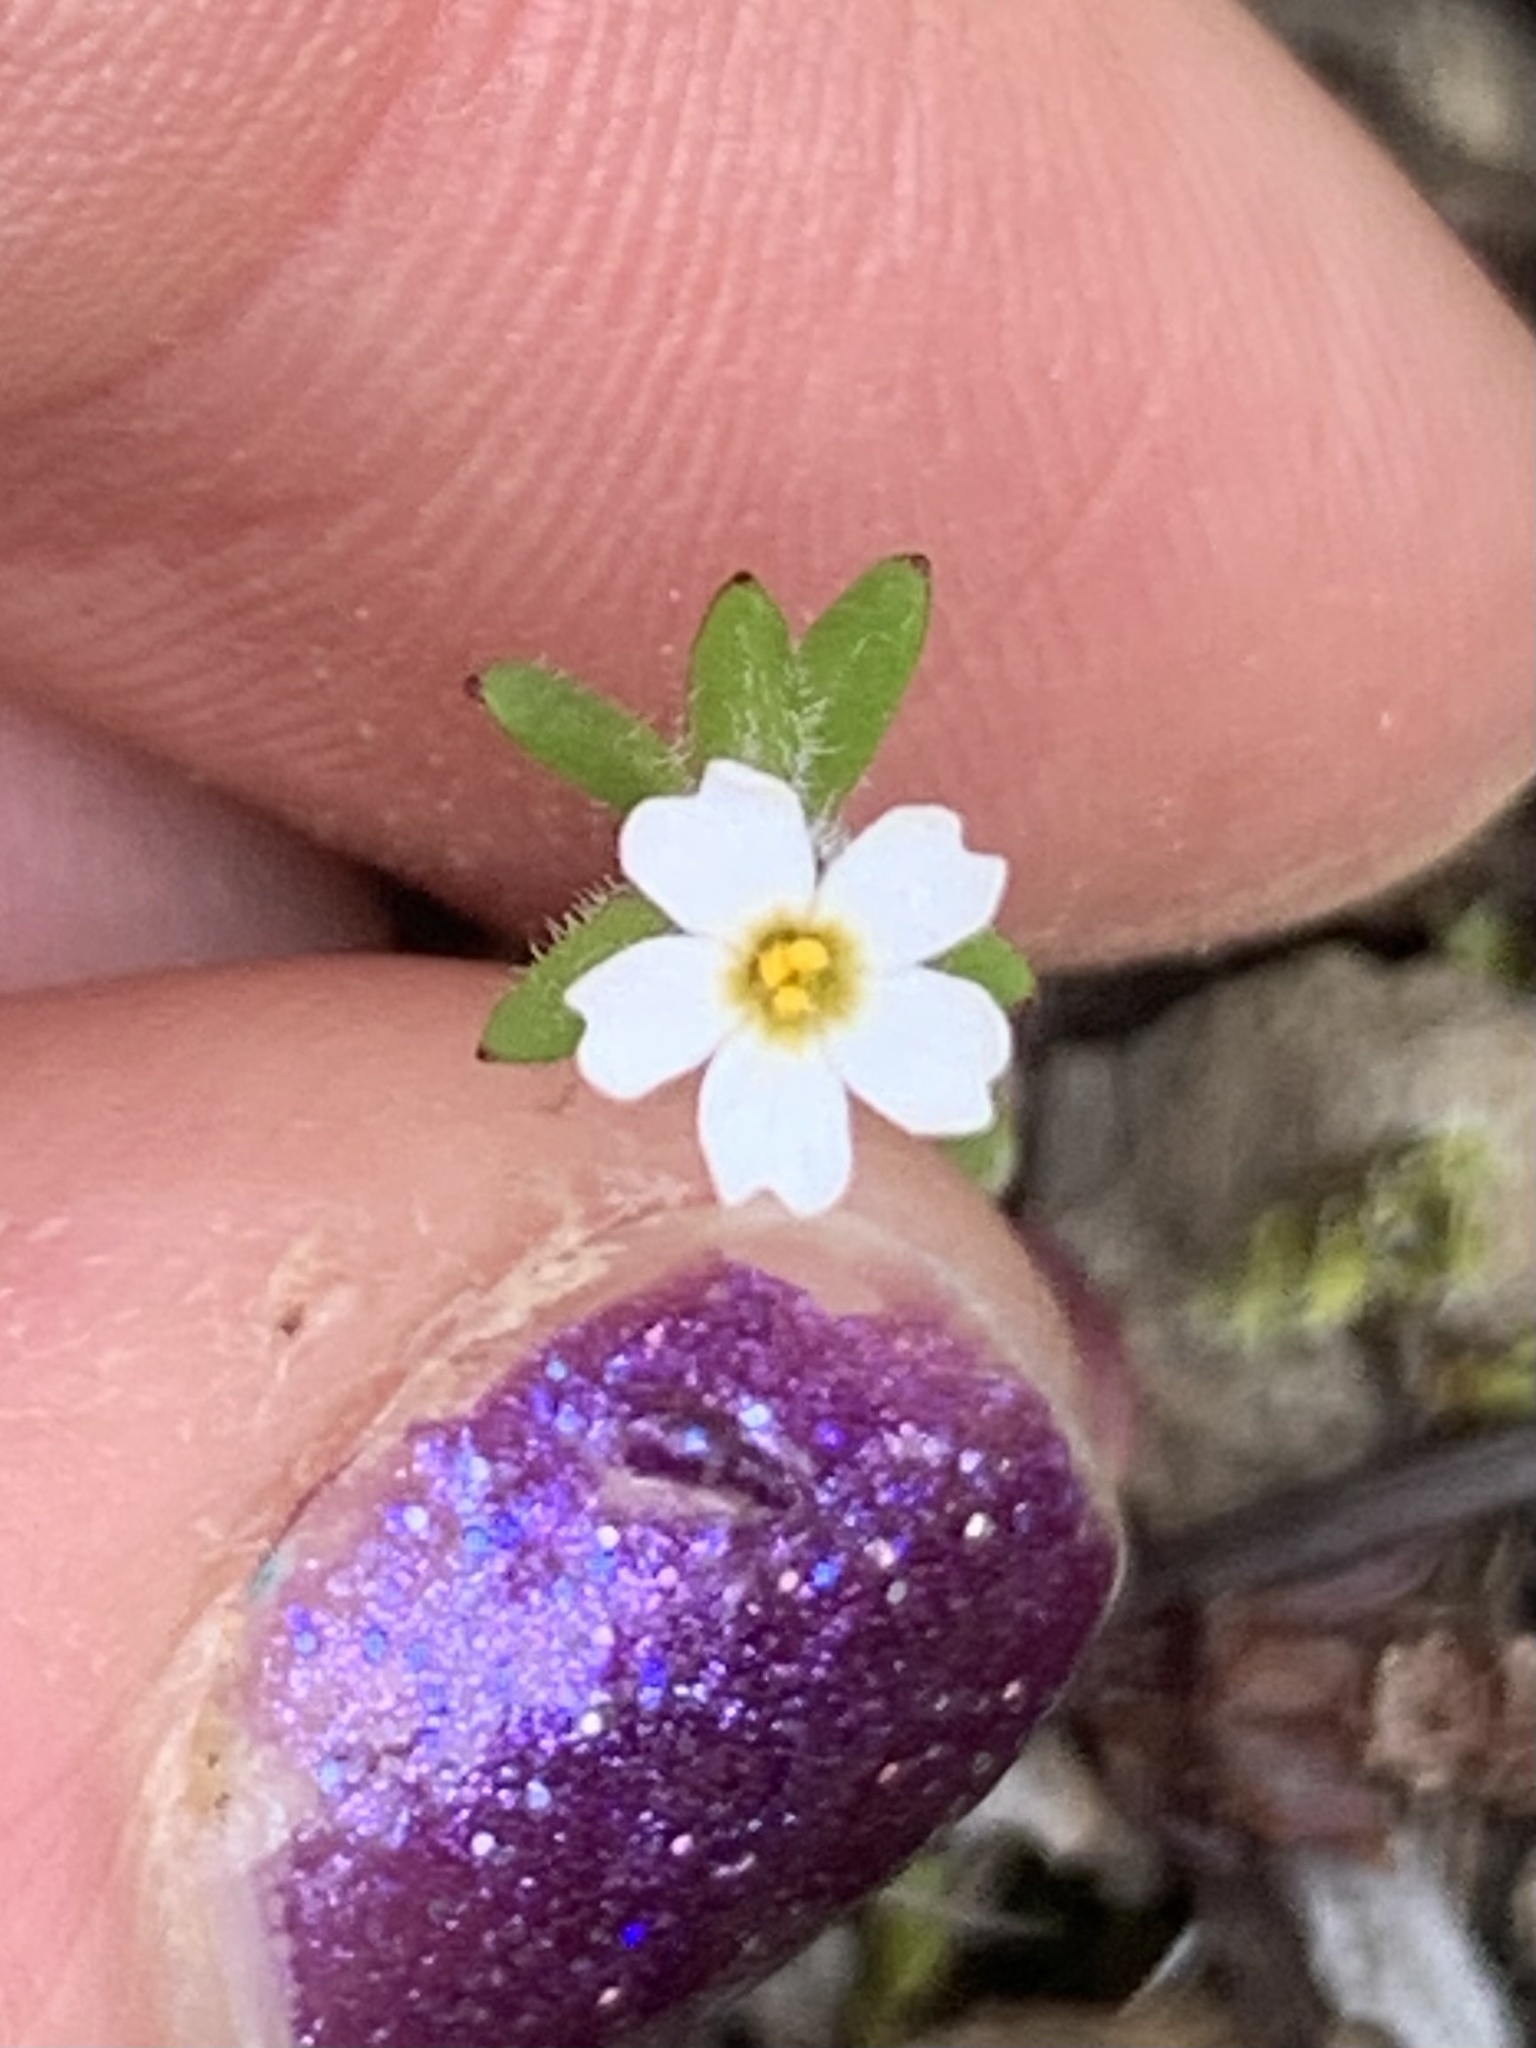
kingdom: Plantae
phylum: Tracheophyta
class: Magnoliopsida
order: Ericales
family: Polemoniaceae
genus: Phlox
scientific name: Phlox gracilis
